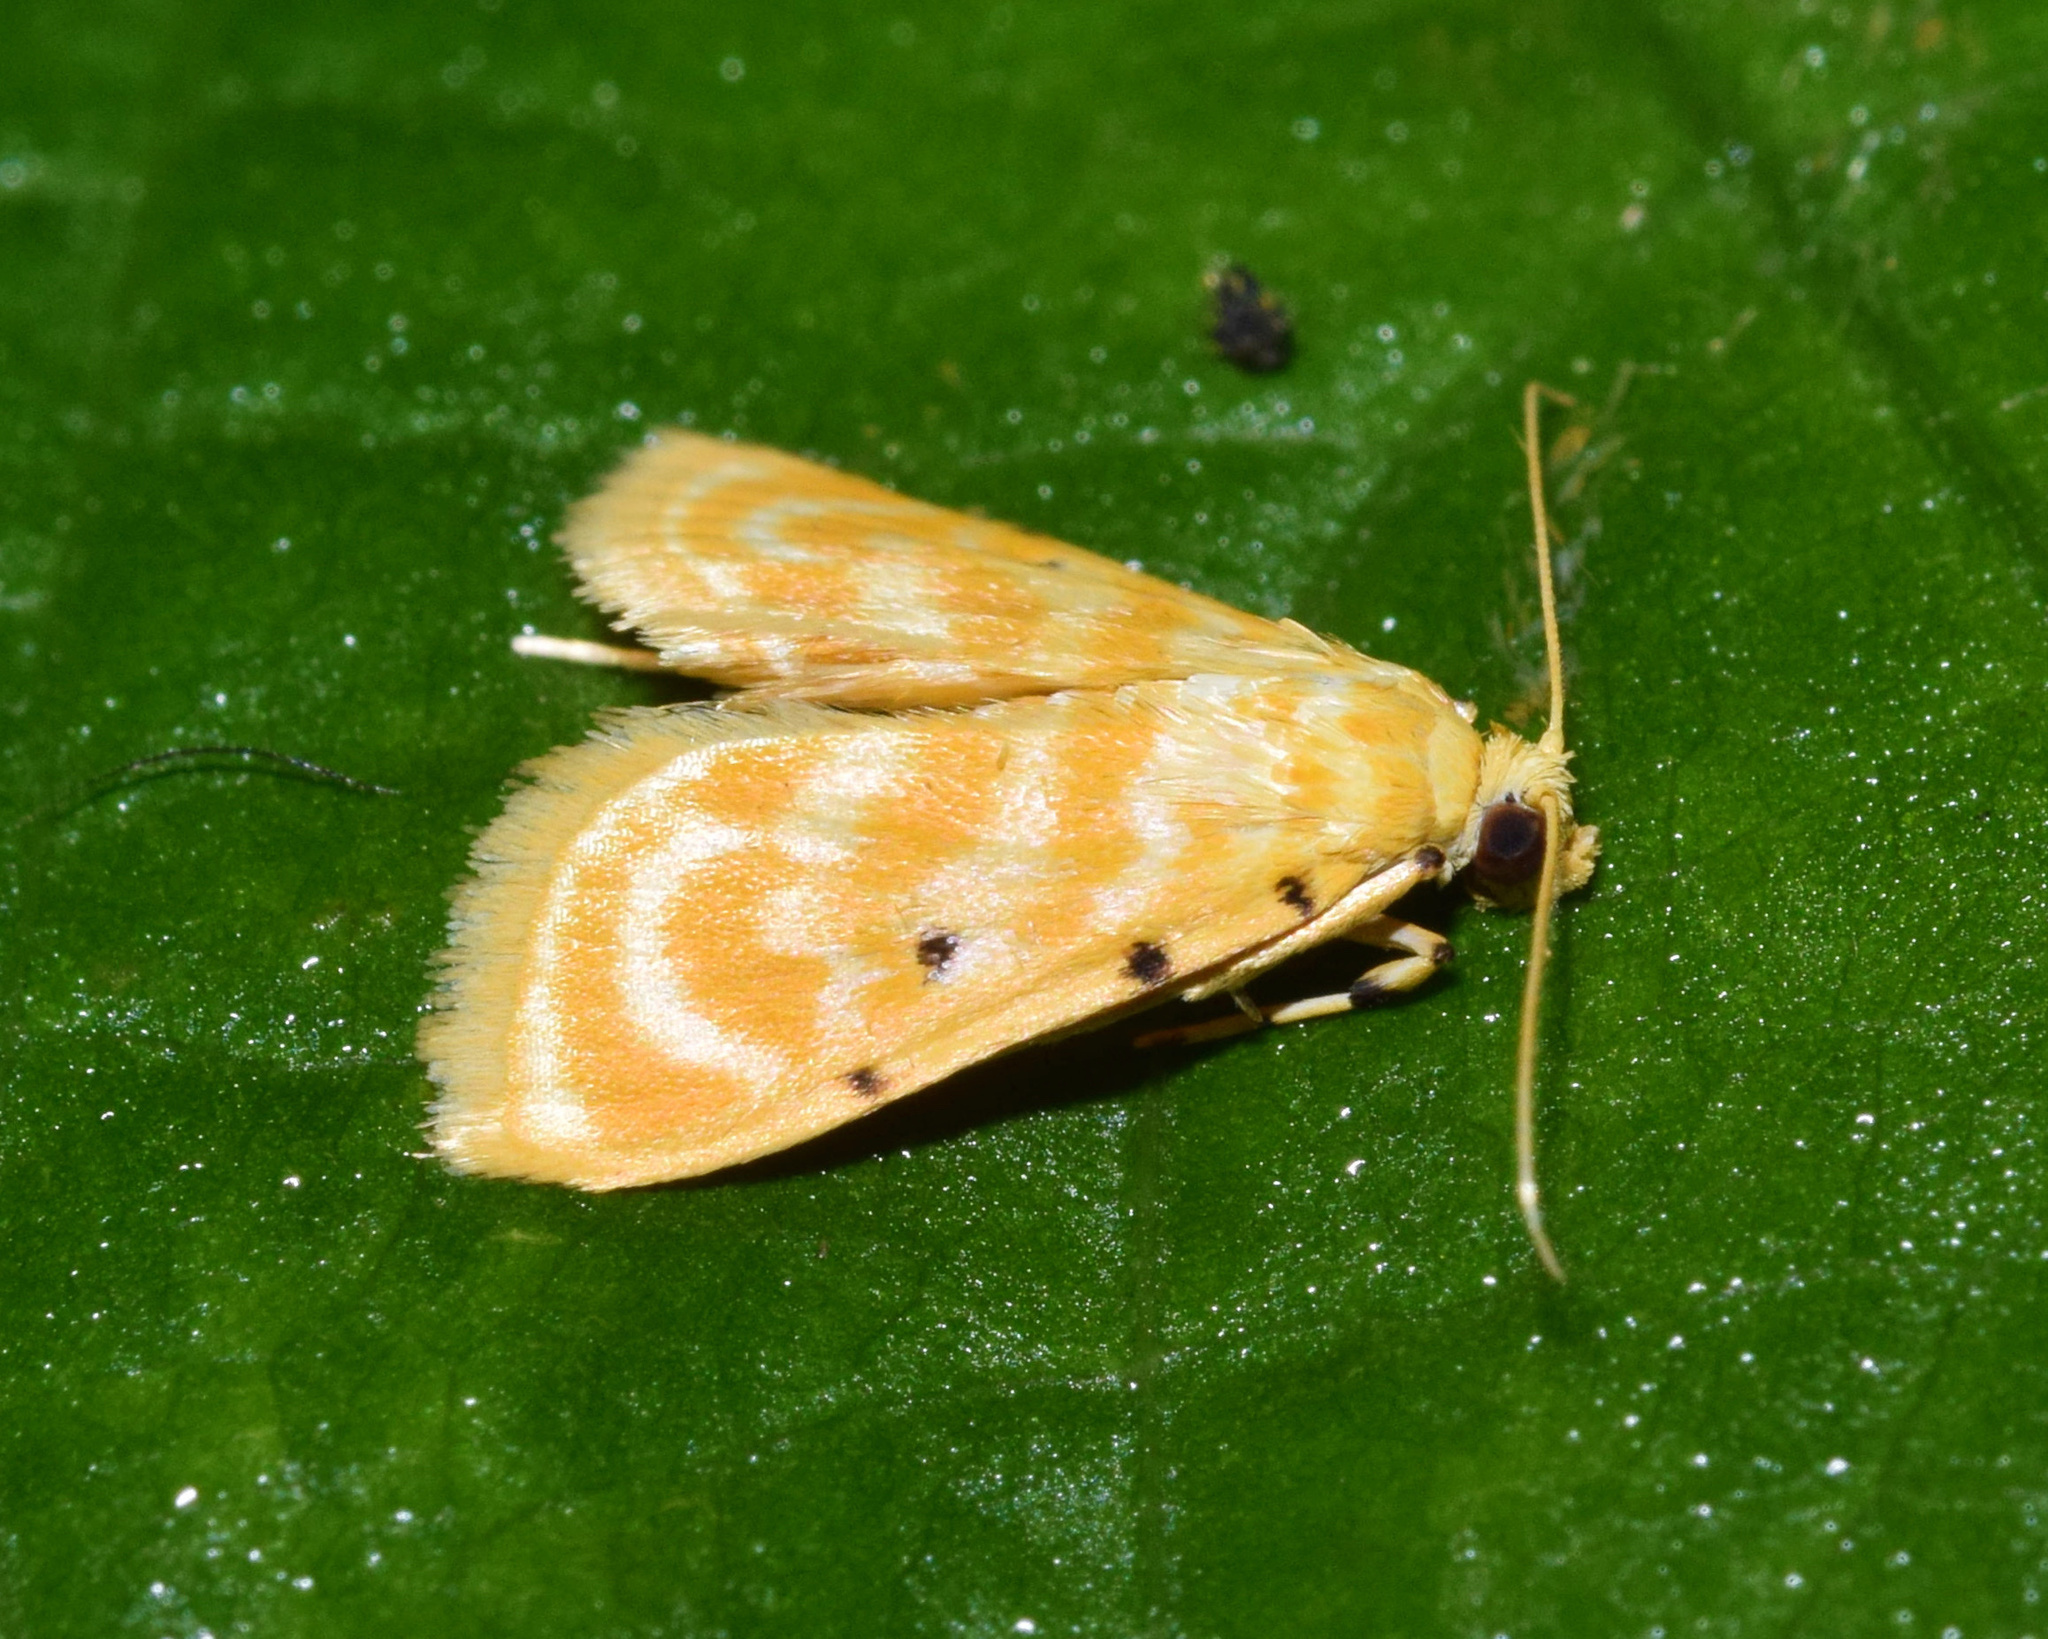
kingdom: Animalia
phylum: Arthropoda
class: Insecta
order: Lepidoptera
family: Crambidae
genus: Notarcha
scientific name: Notarcha quaternalis
